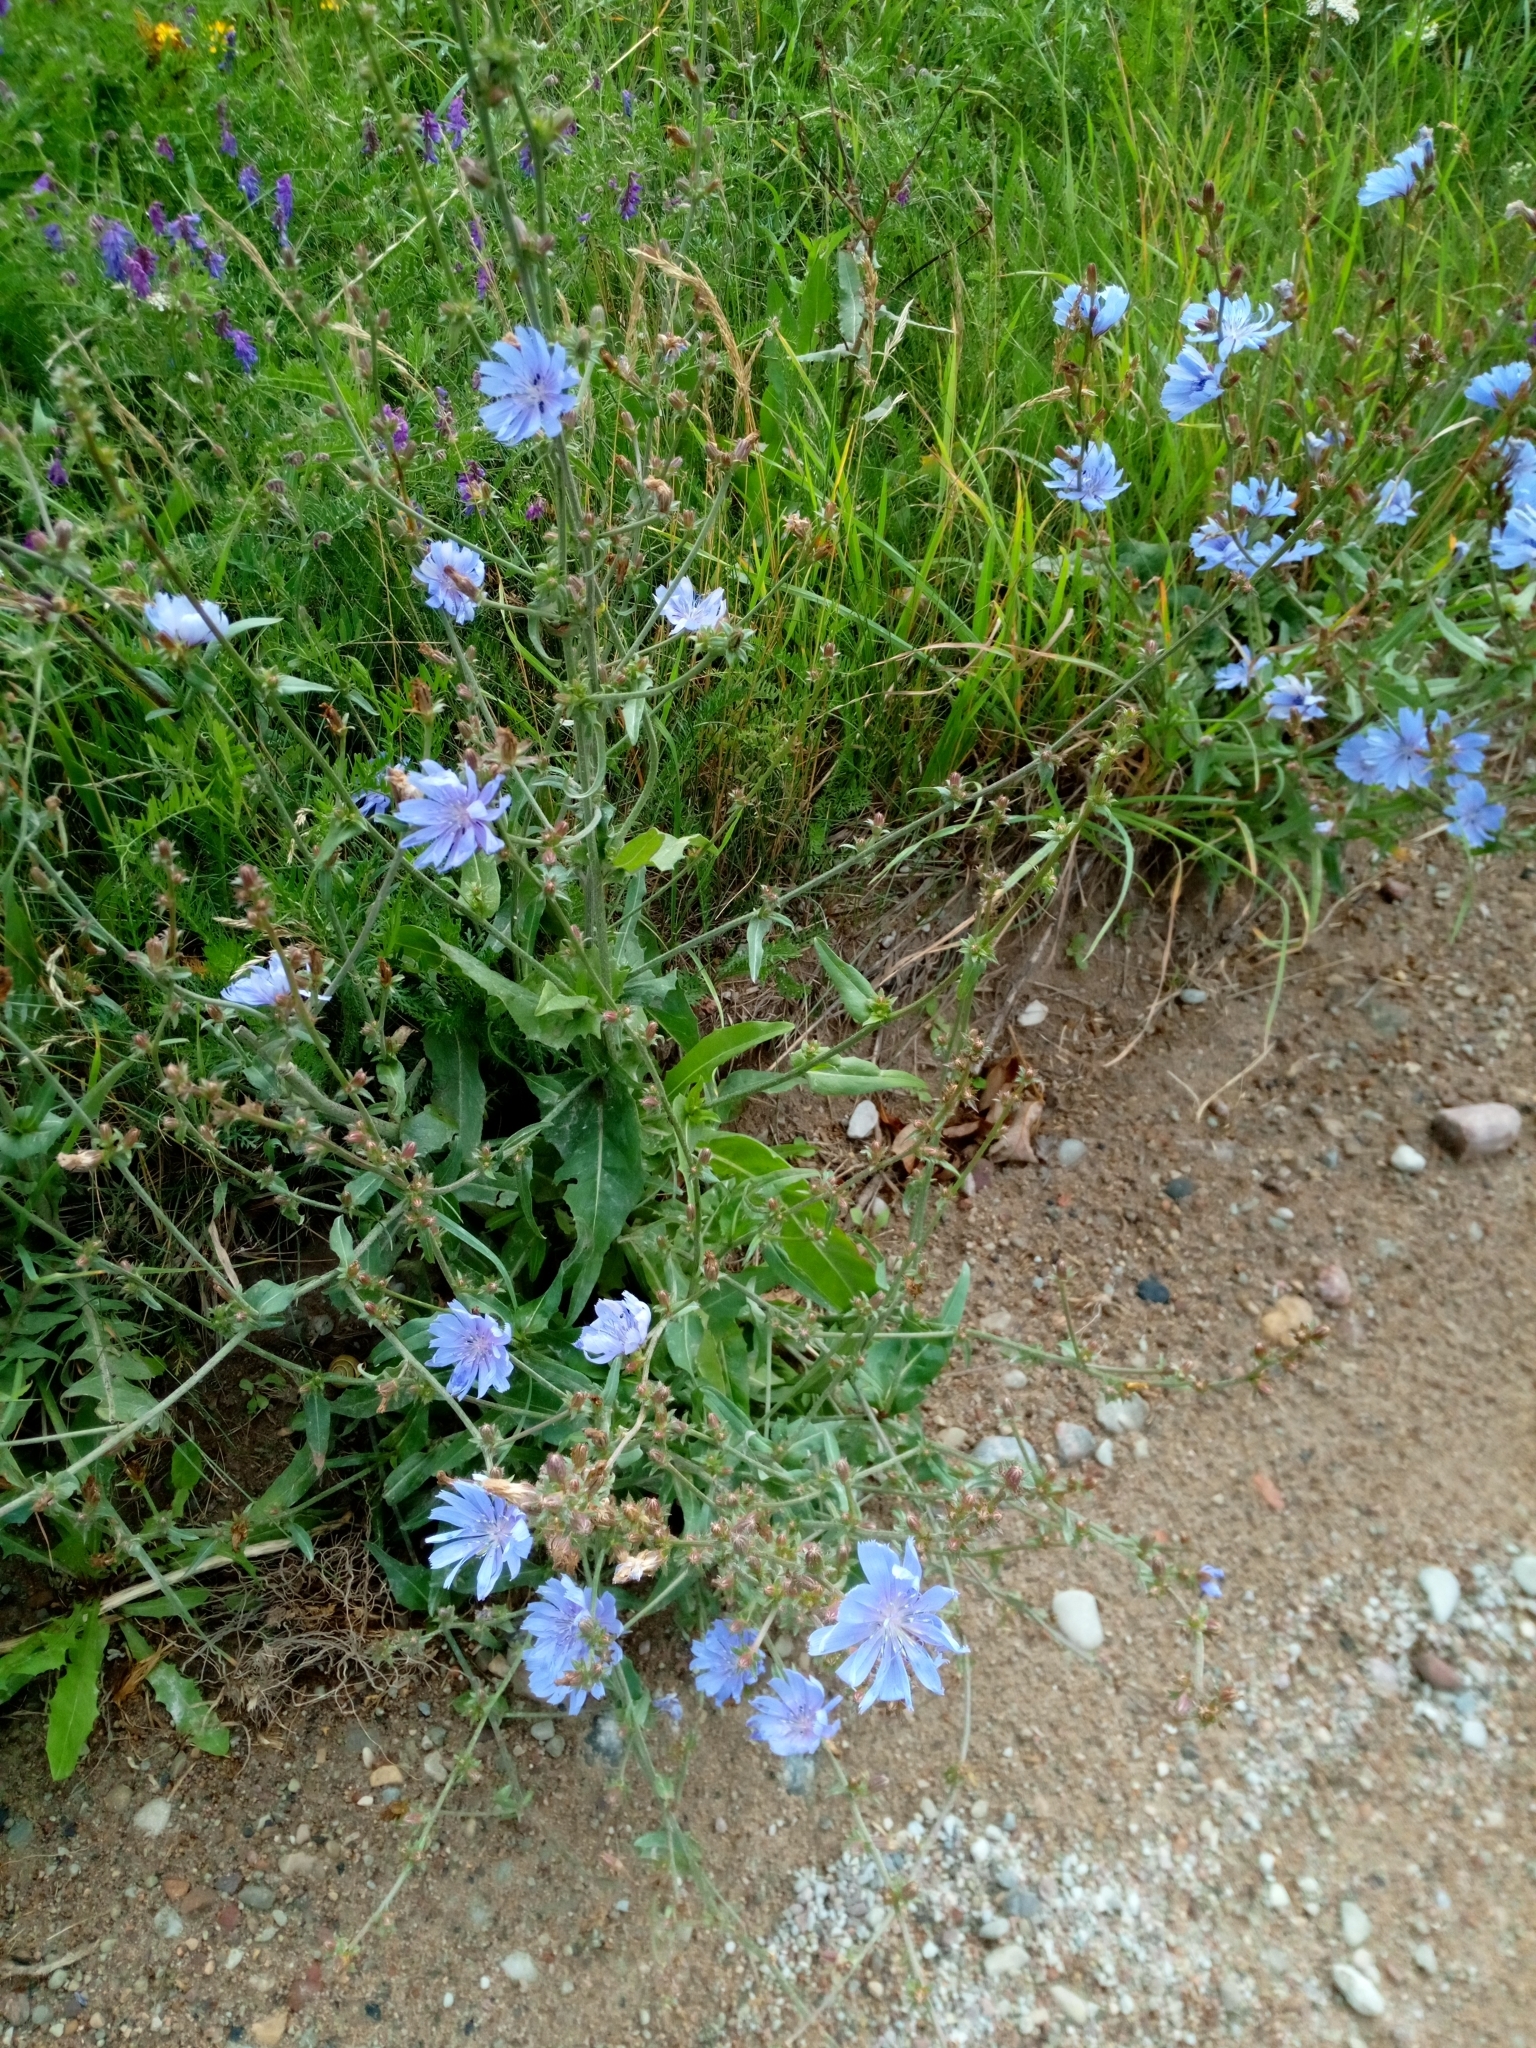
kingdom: Plantae
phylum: Tracheophyta
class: Magnoliopsida
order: Asterales
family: Asteraceae
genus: Cichorium
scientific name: Cichorium intybus
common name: Chicory
